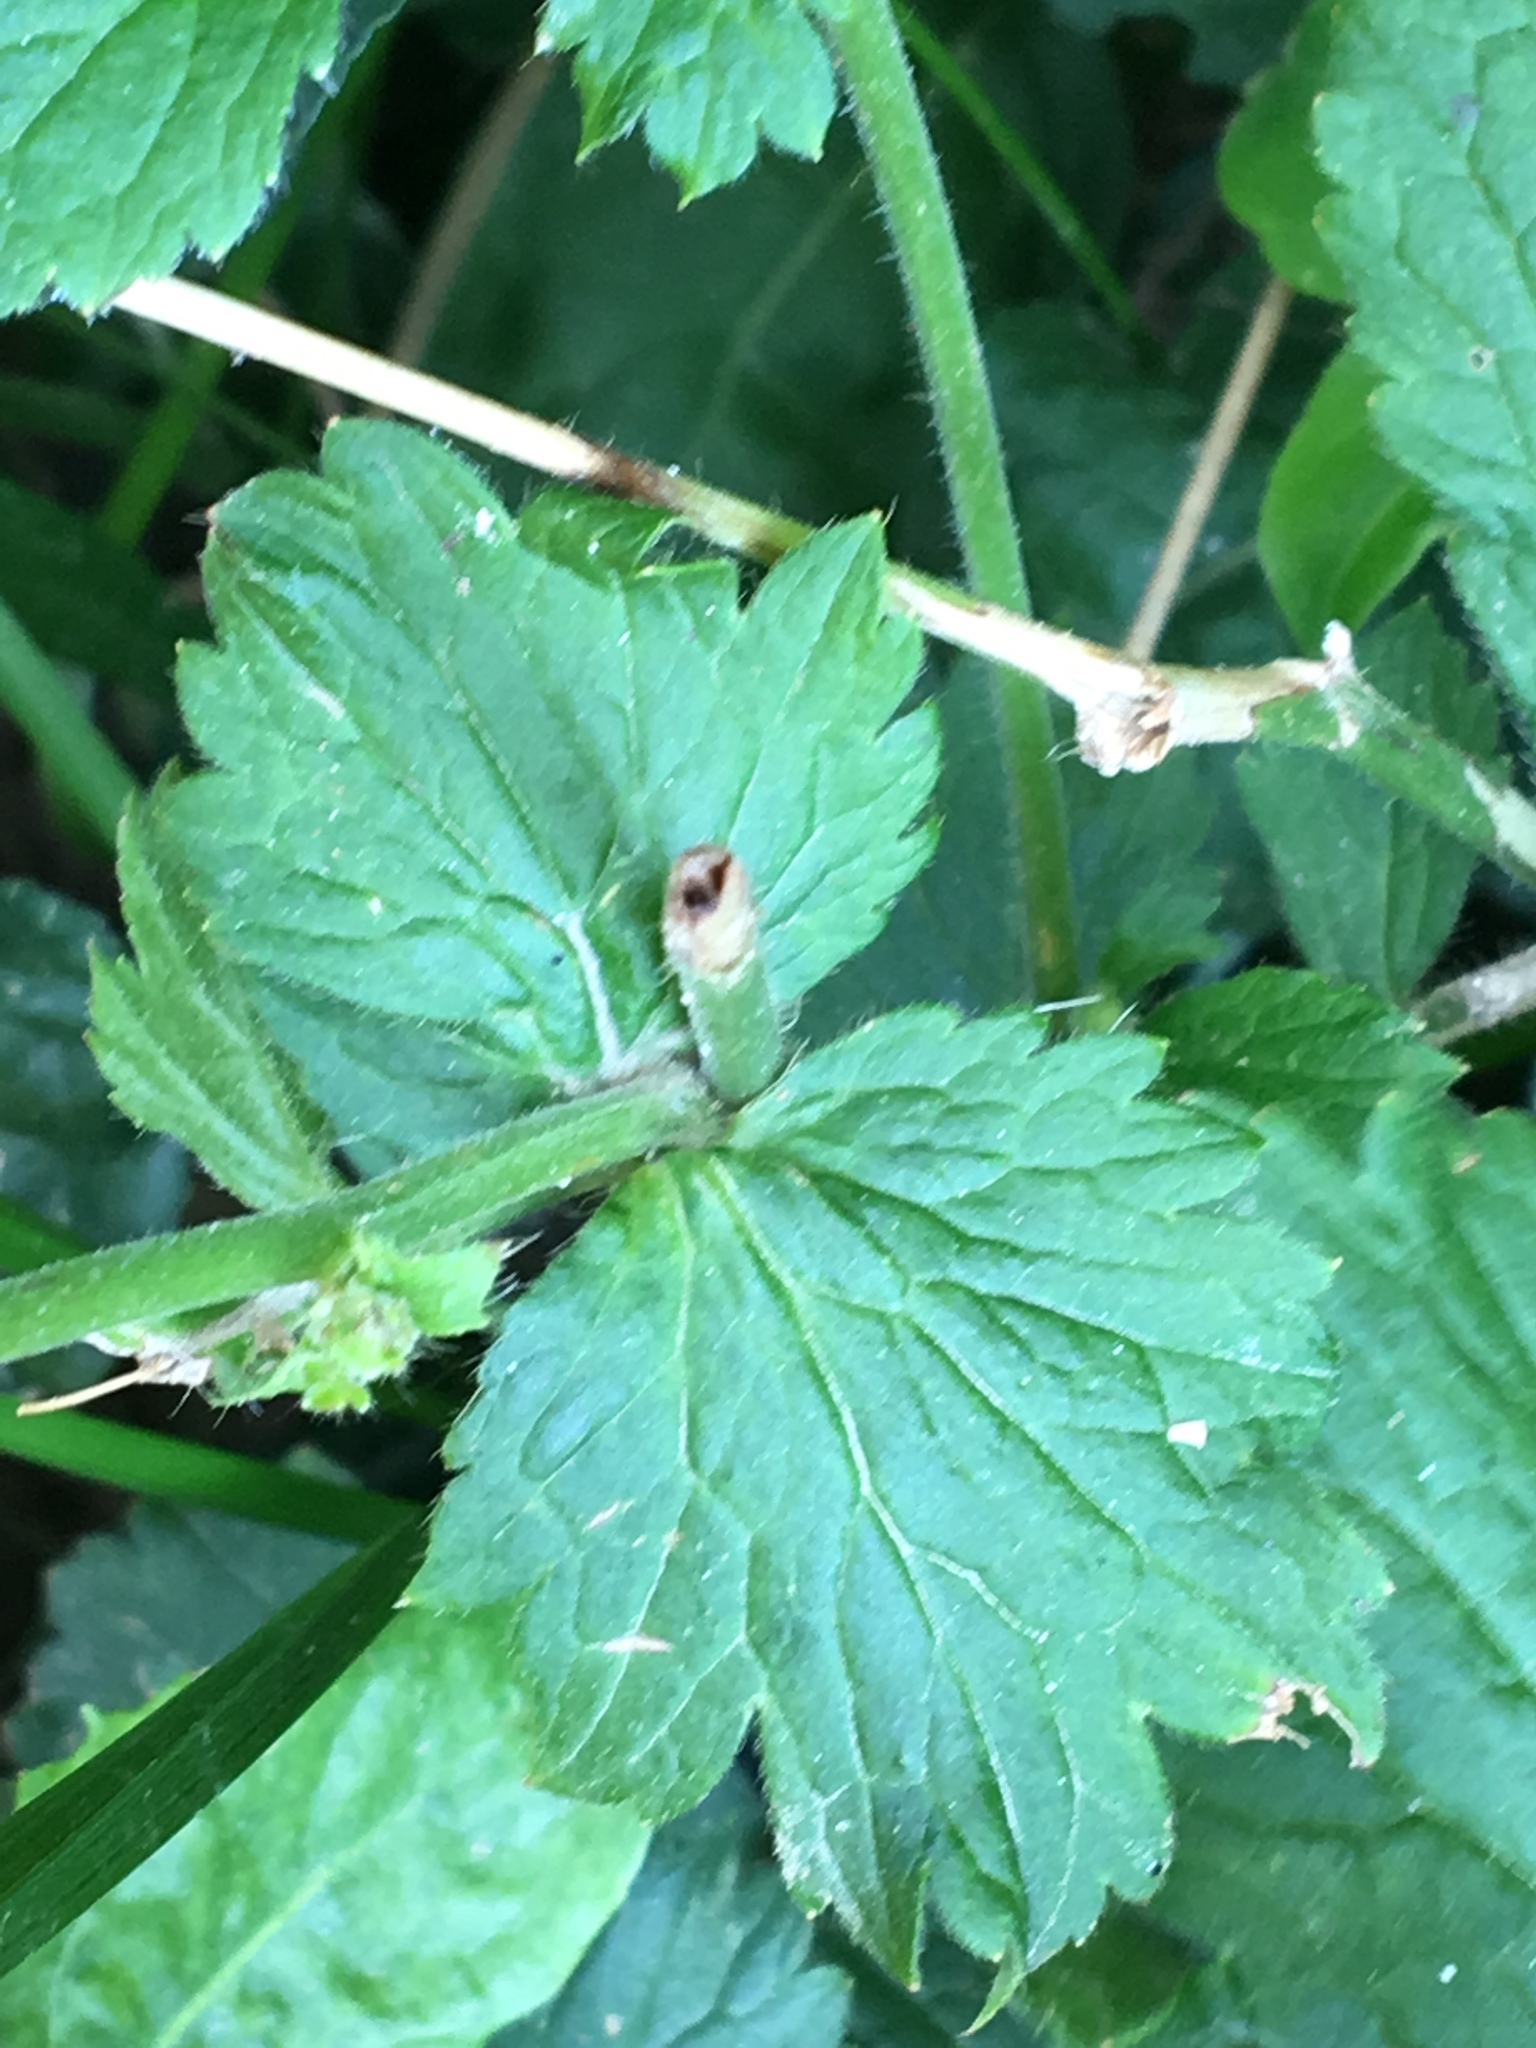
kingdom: Plantae
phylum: Tracheophyta
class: Magnoliopsida
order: Rosales
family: Rosaceae
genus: Geum
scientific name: Geum urbanum
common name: Wood avens
